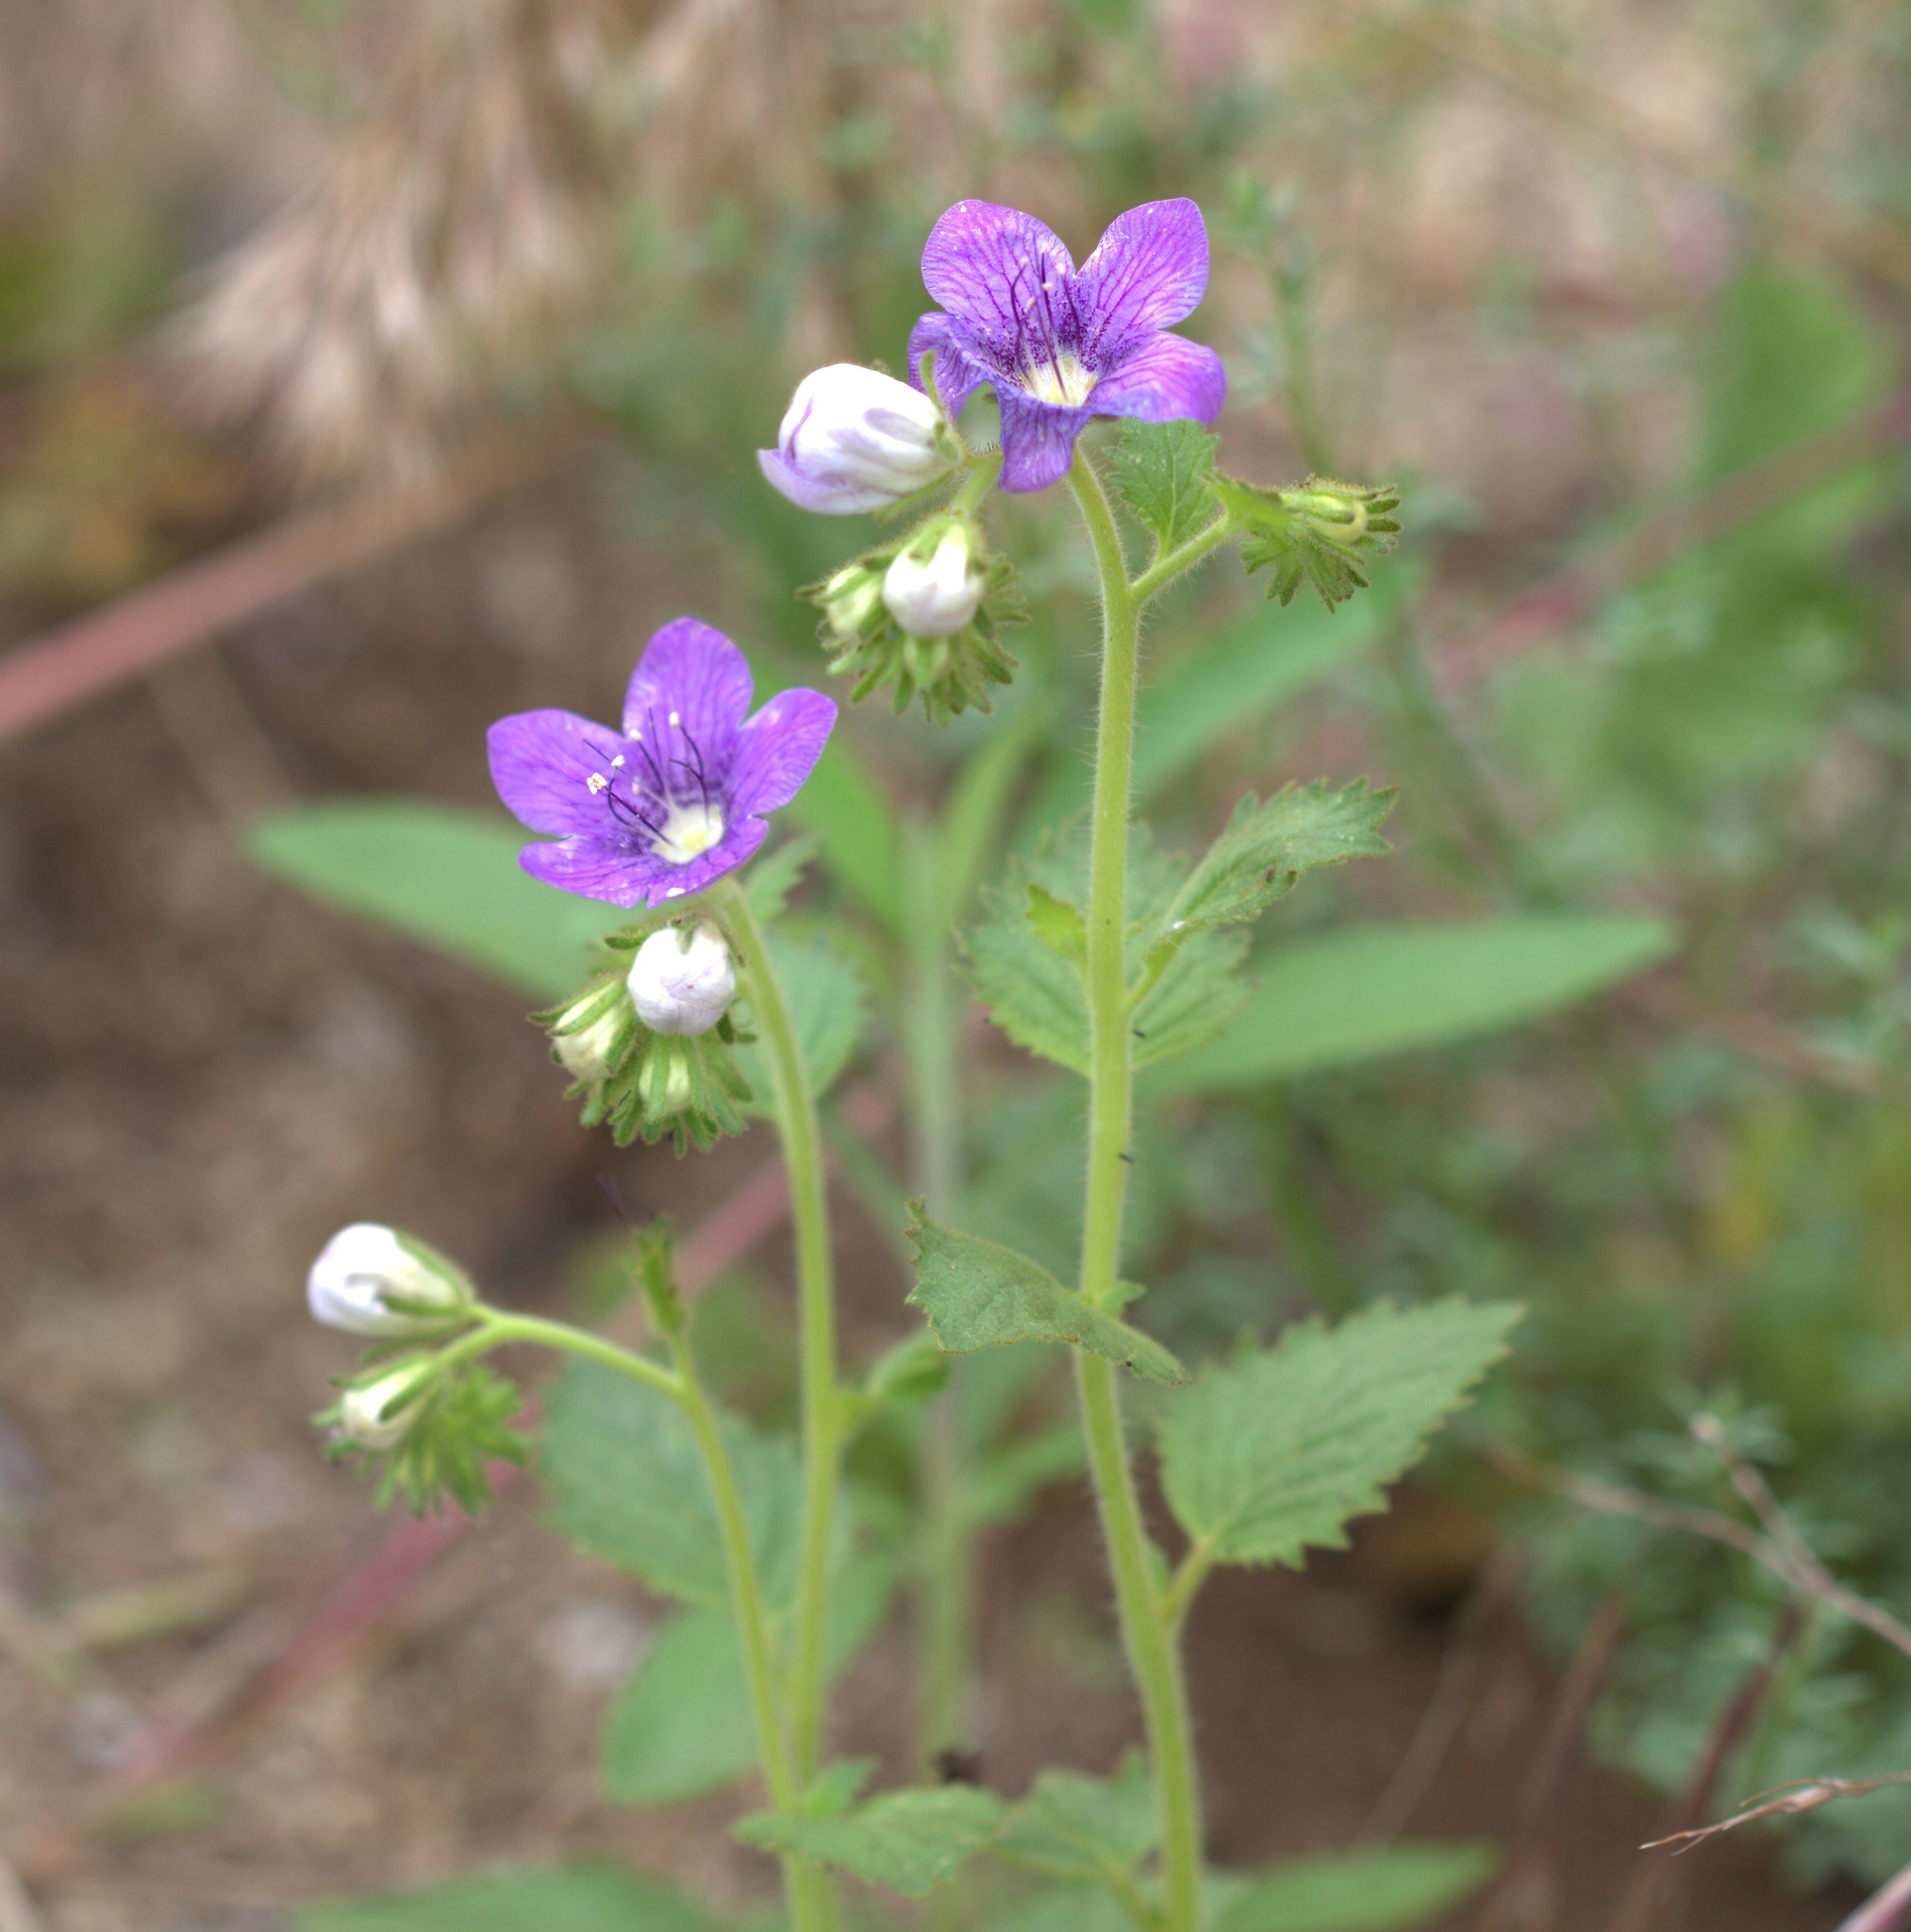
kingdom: Plantae
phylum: Tracheophyta
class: Magnoliopsida
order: Boraginales
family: Hydrophyllaceae
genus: Phacelia
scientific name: Phacelia grandiflora
